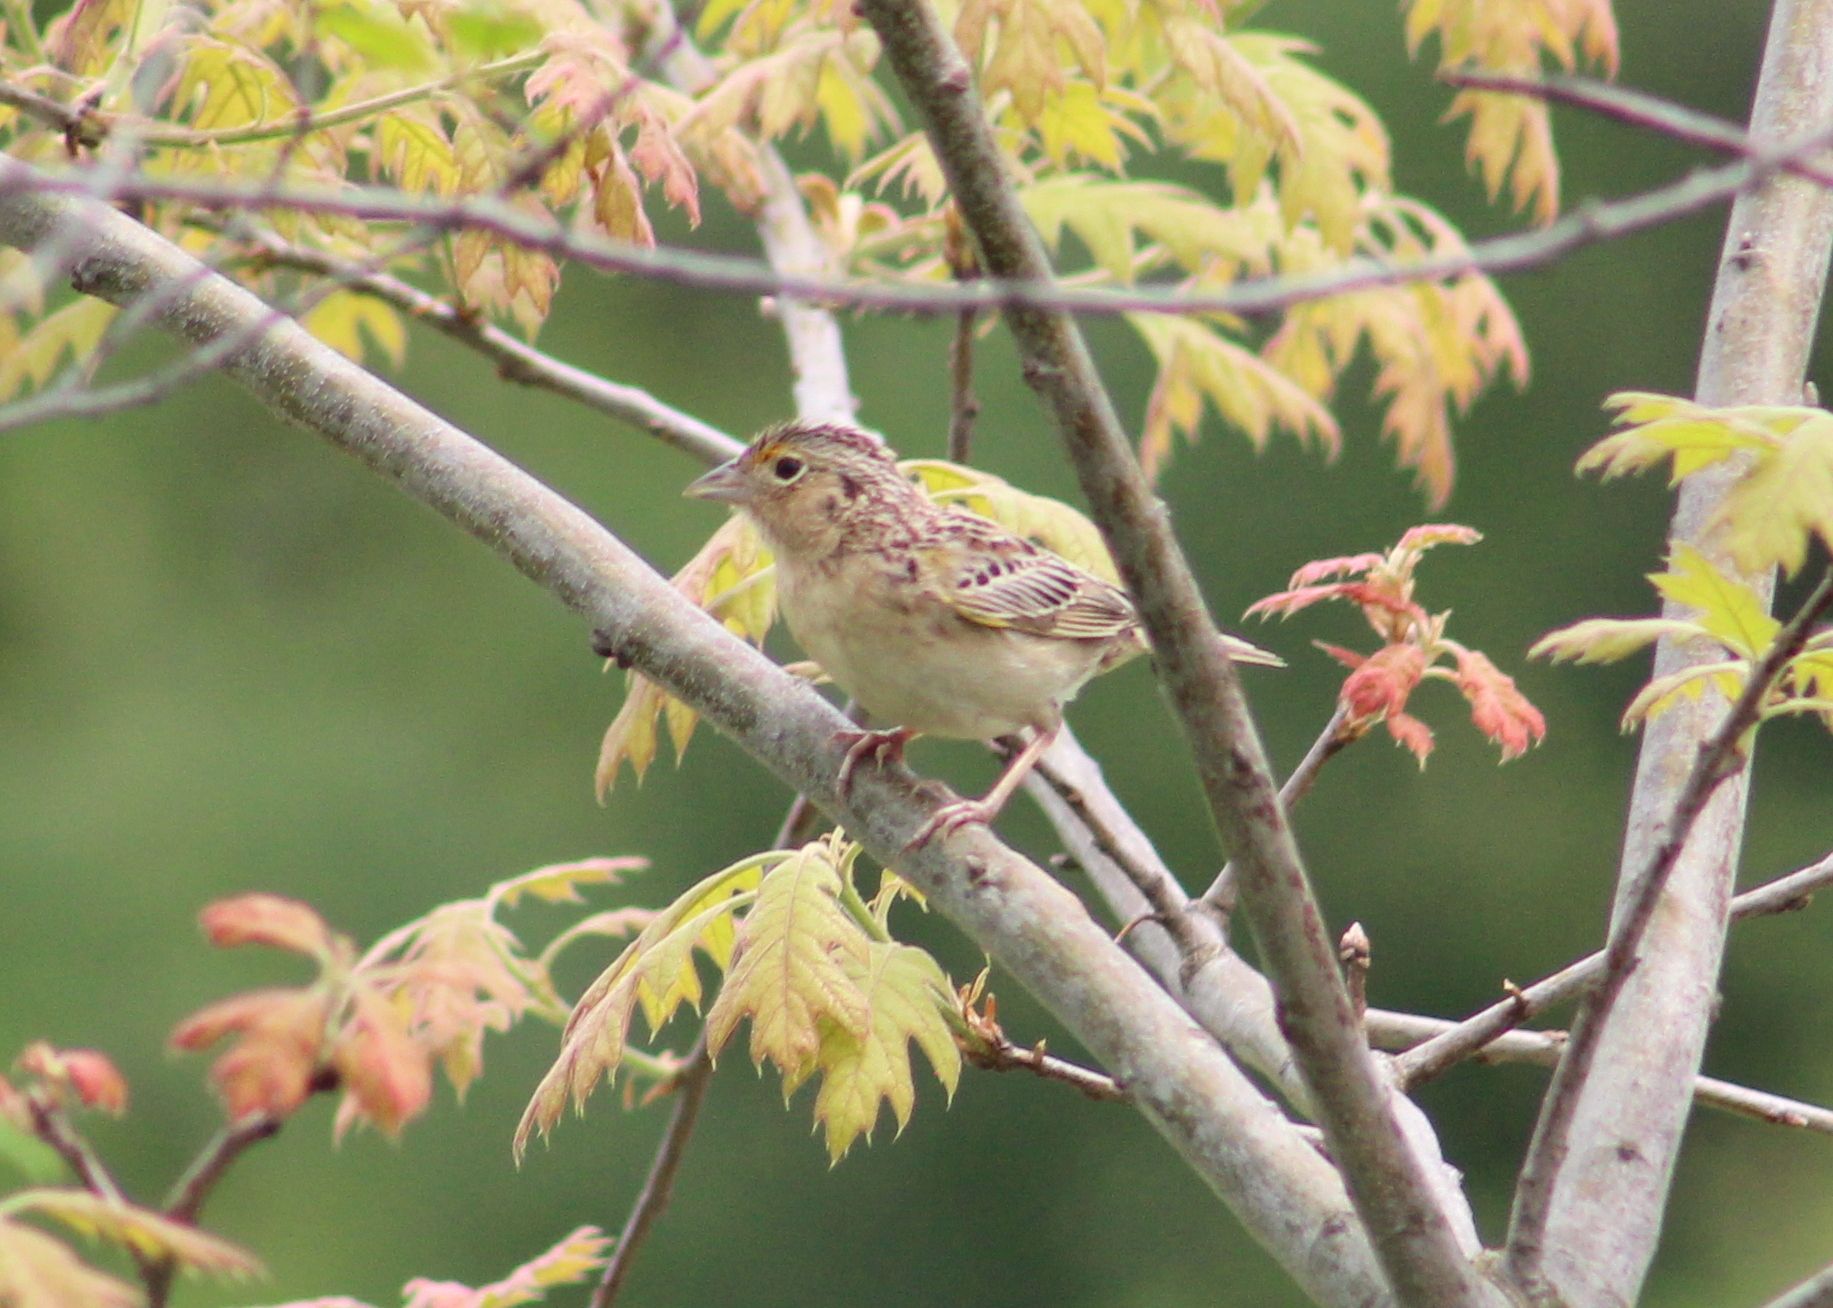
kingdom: Animalia
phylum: Chordata
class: Aves
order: Passeriformes
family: Passerellidae
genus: Ammodramus
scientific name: Ammodramus savannarum
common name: Grasshopper sparrow
